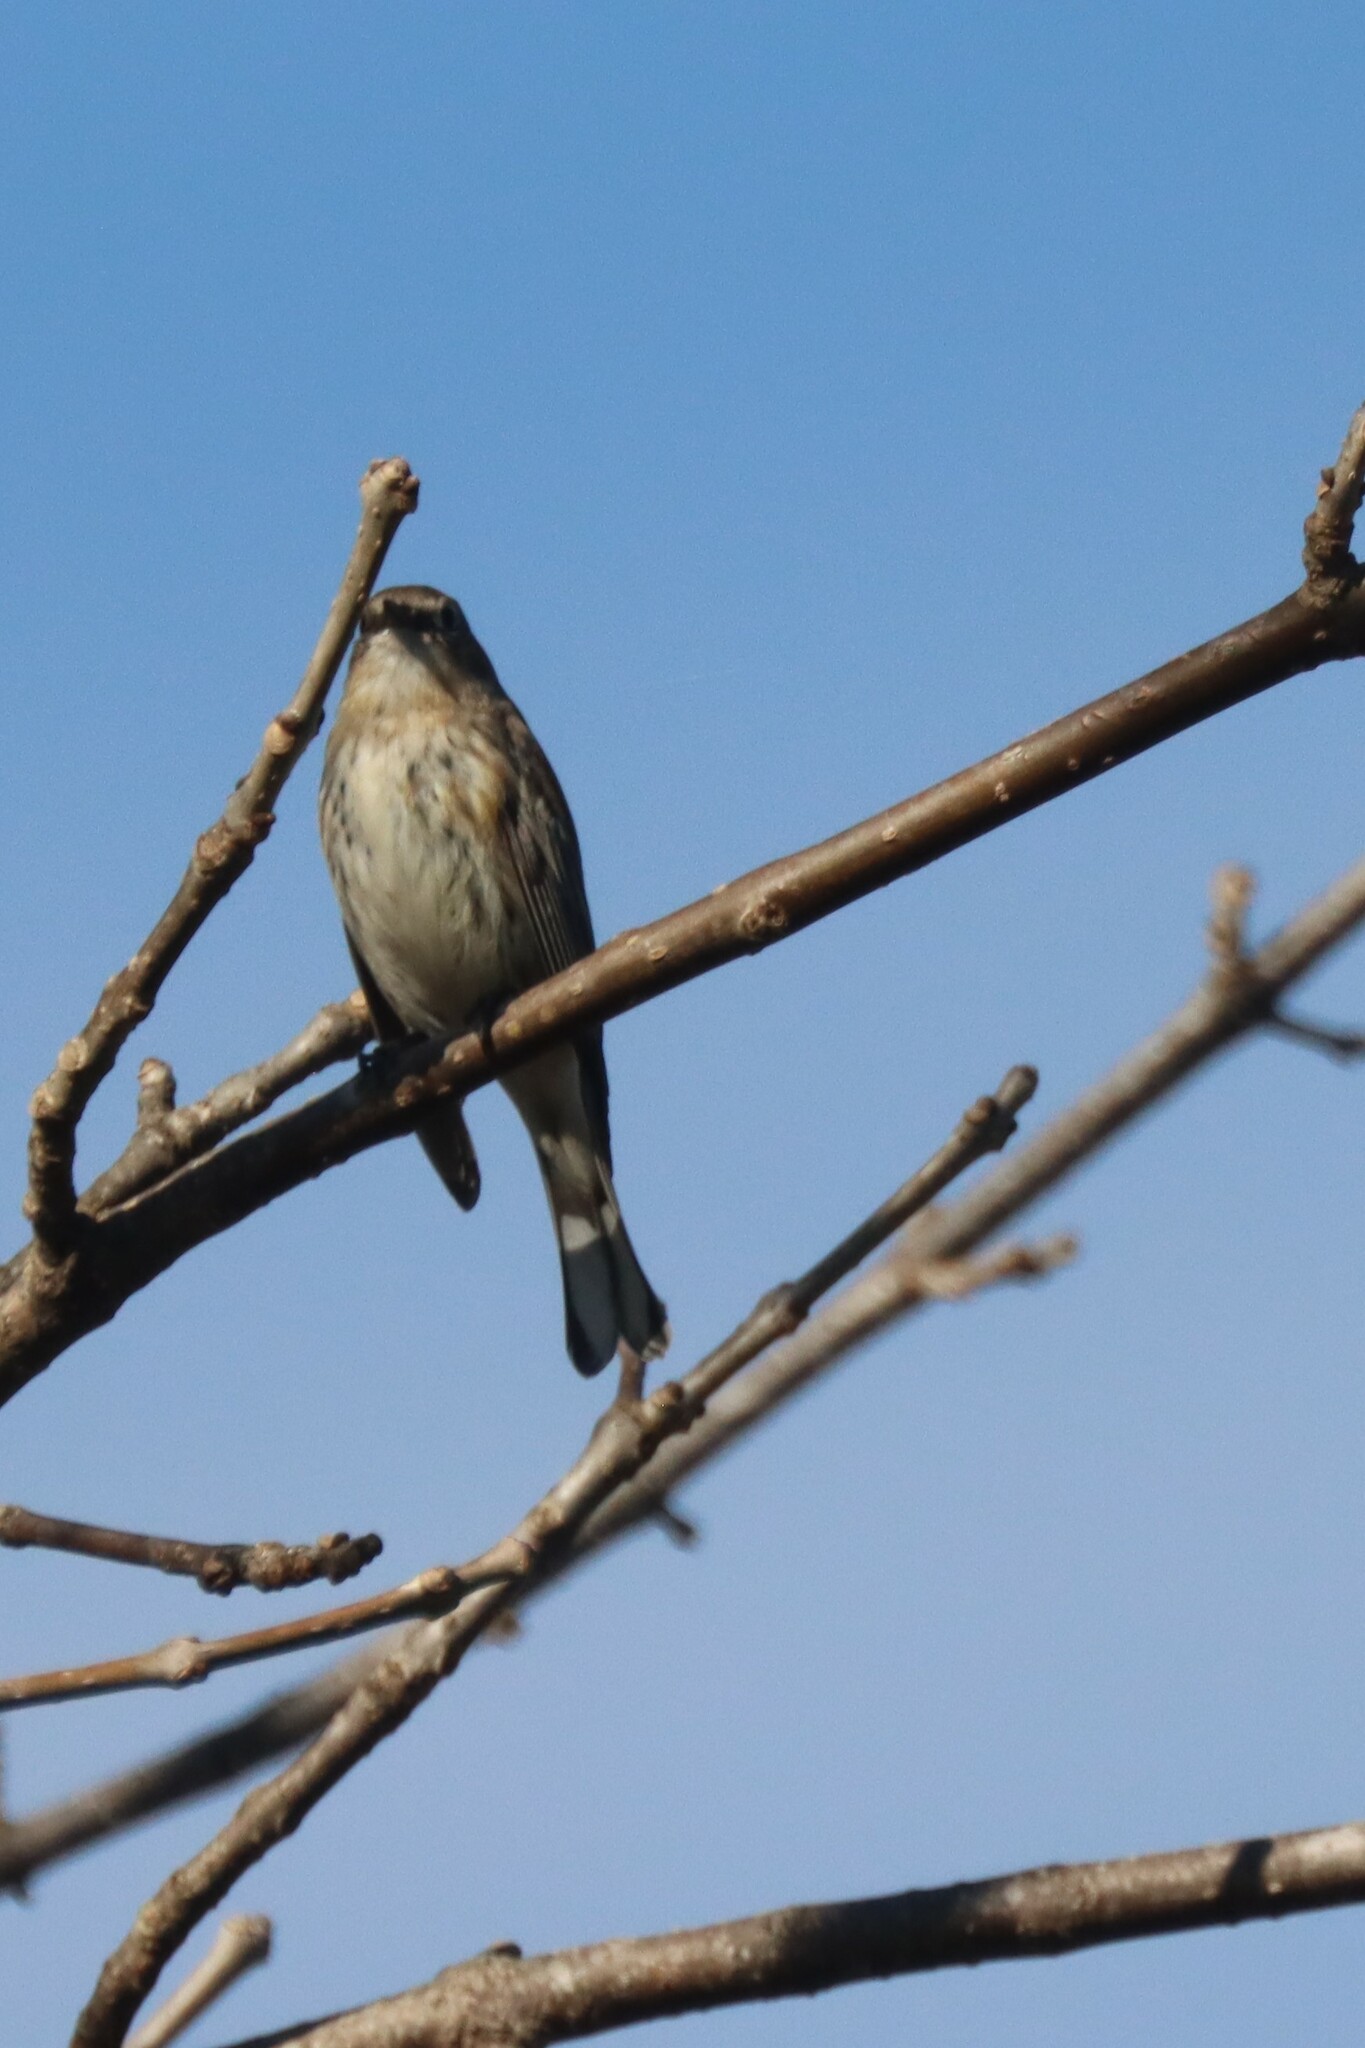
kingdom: Animalia
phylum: Chordata
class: Aves
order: Passeriformes
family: Parulidae
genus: Setophaga
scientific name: Setophaga coronata
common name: Myrtle warbler
